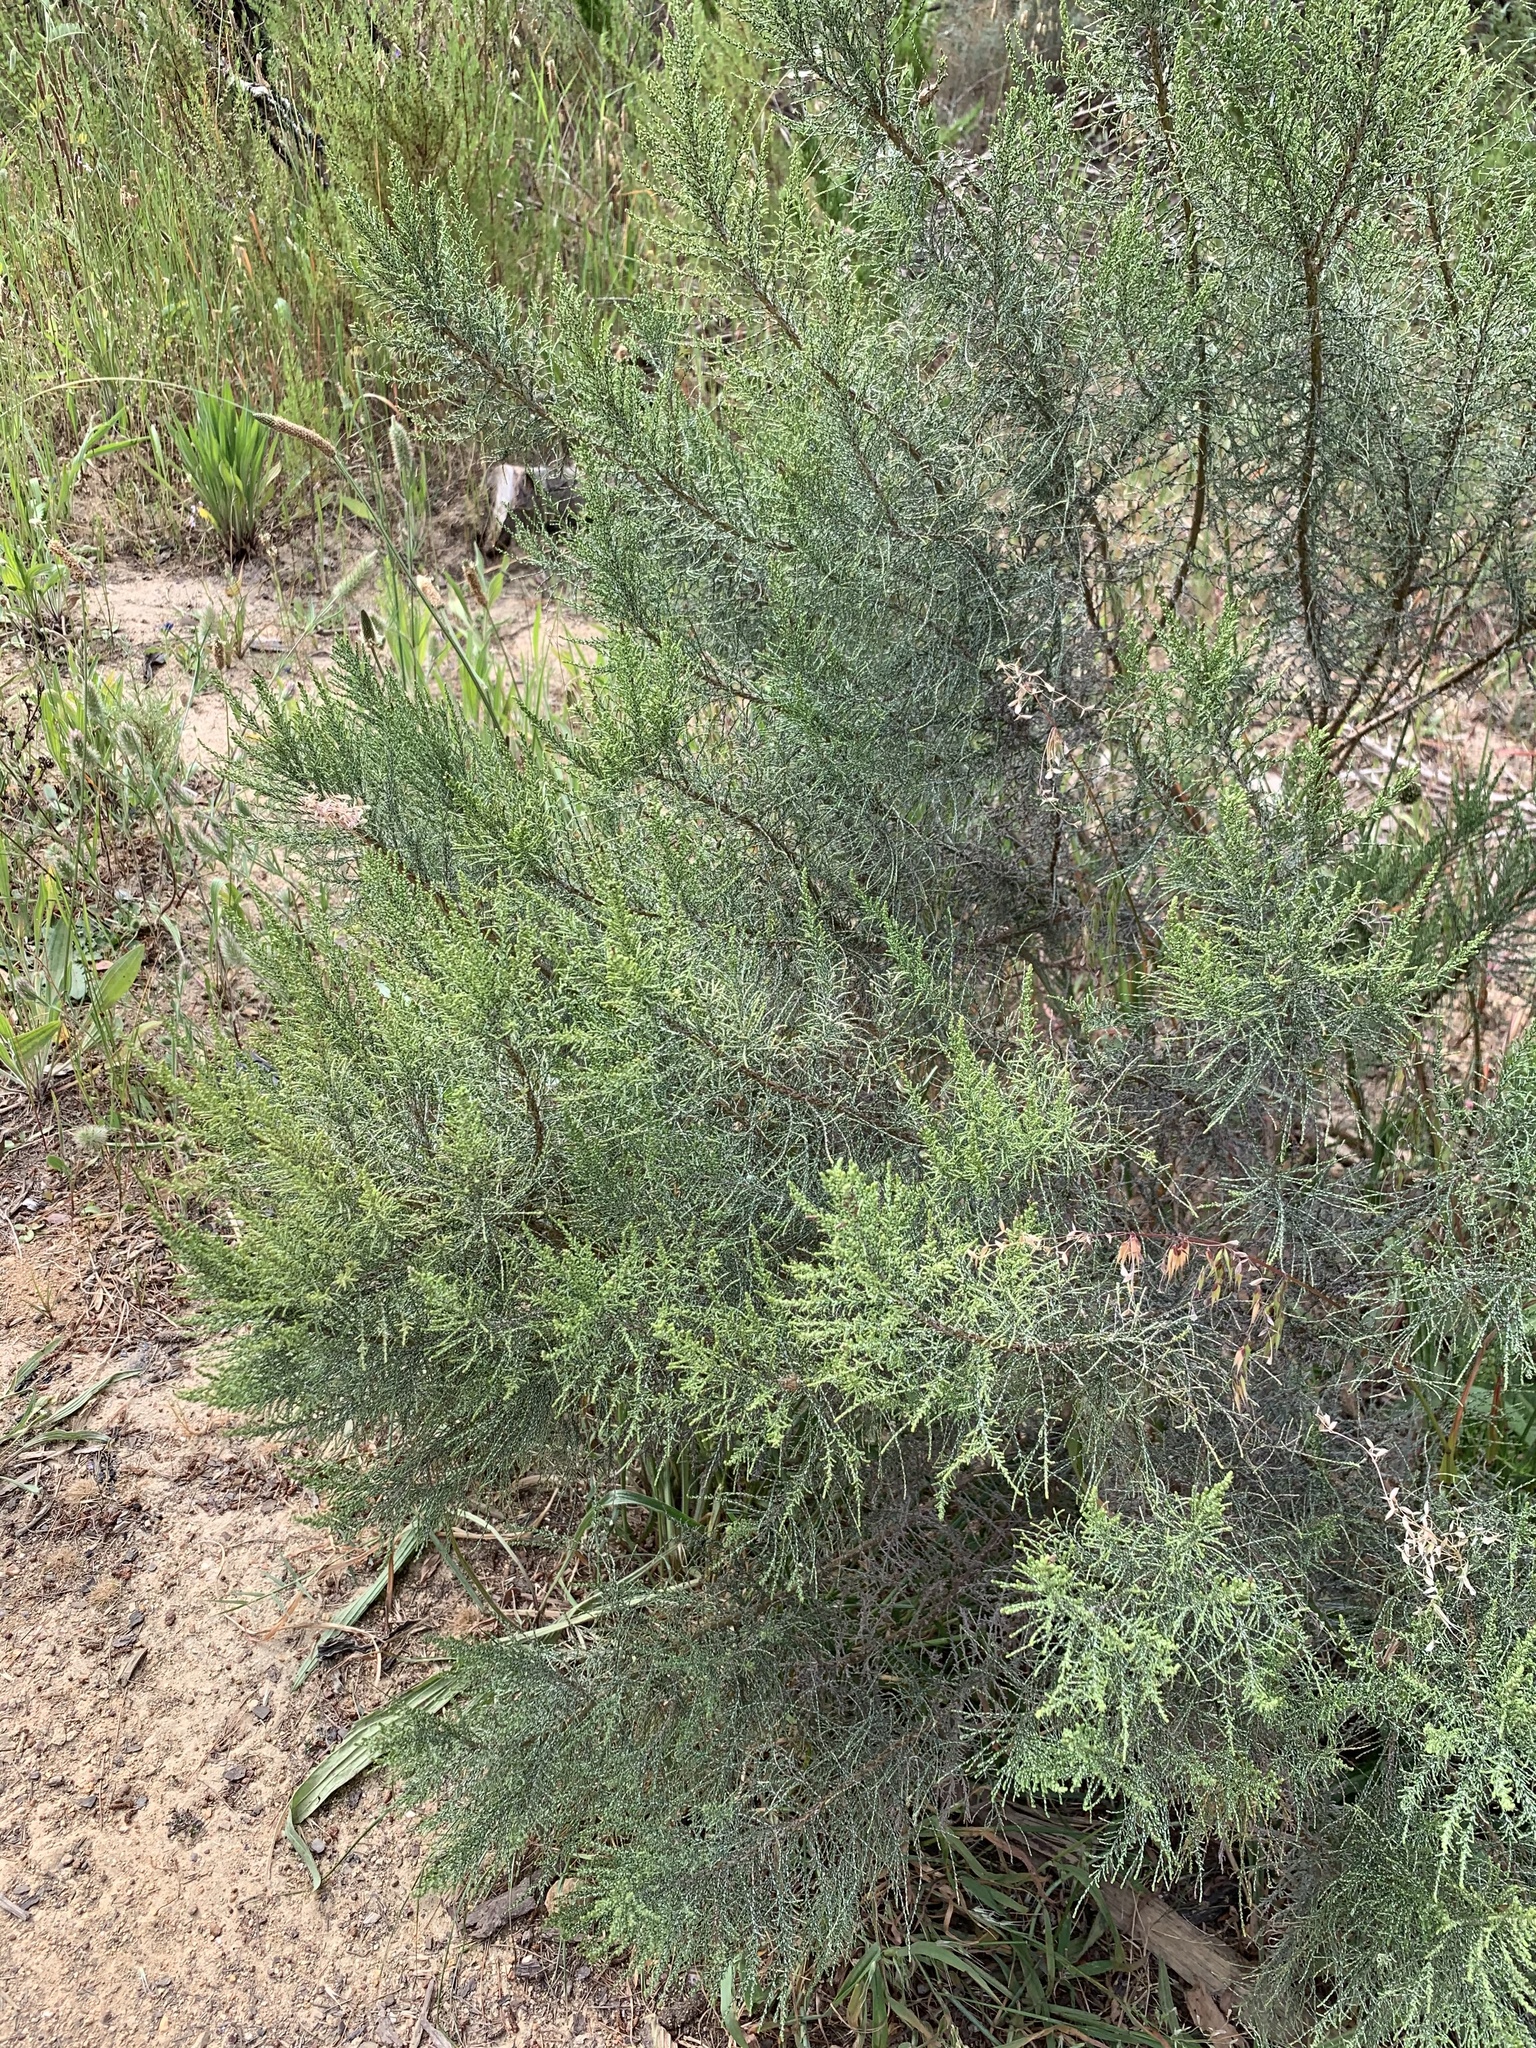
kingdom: Plantae
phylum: Tracheophyta
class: Magnoliopsida
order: Asterales
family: Asteraceae
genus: Dicerothamnus
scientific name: Dicerothamnus rhinocerotis
